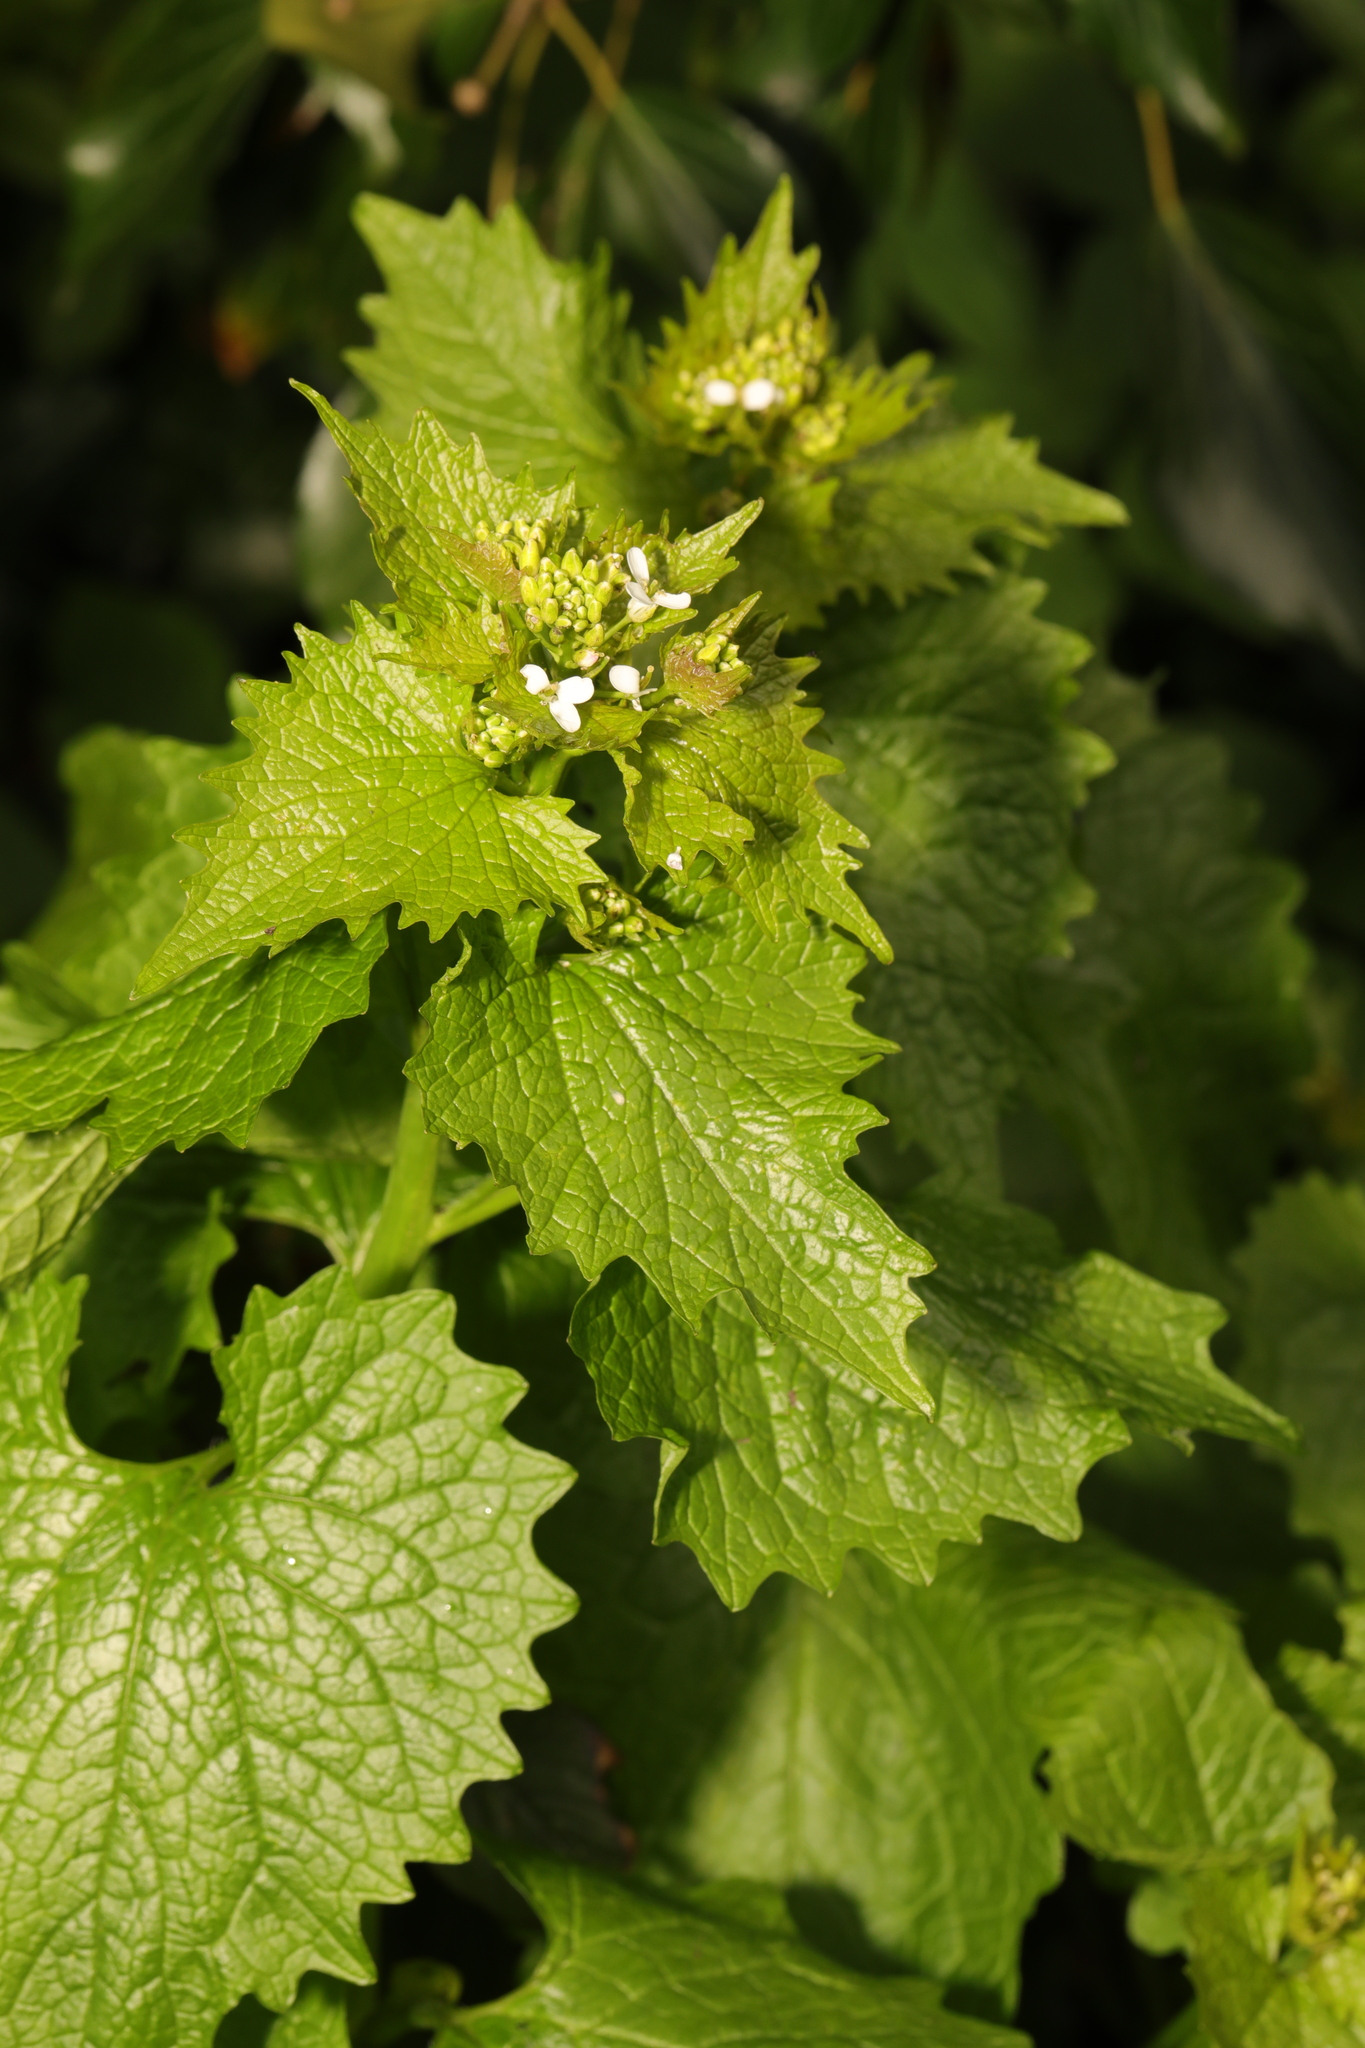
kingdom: Plantae
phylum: Tracheophyta
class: Magnoliopsida
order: Brassicales
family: Brassicaceae
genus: Alliaria
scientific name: Alliaria petiolata
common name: Garlic mustard
